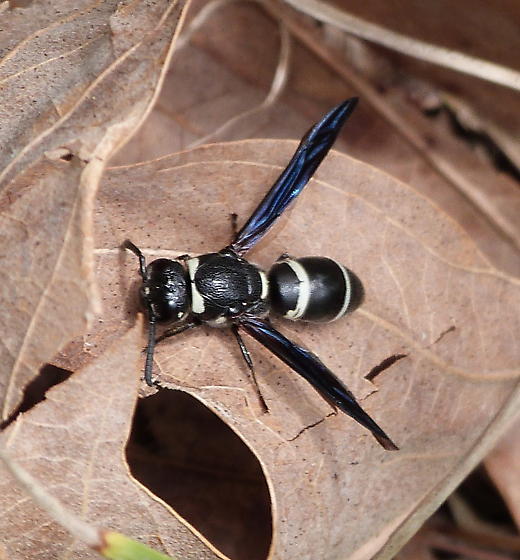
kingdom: Animalia
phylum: Arthropoda
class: Insecta
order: Hymenoptera
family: Eumenidae
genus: Euodynerus
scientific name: Euodynerus megaera
